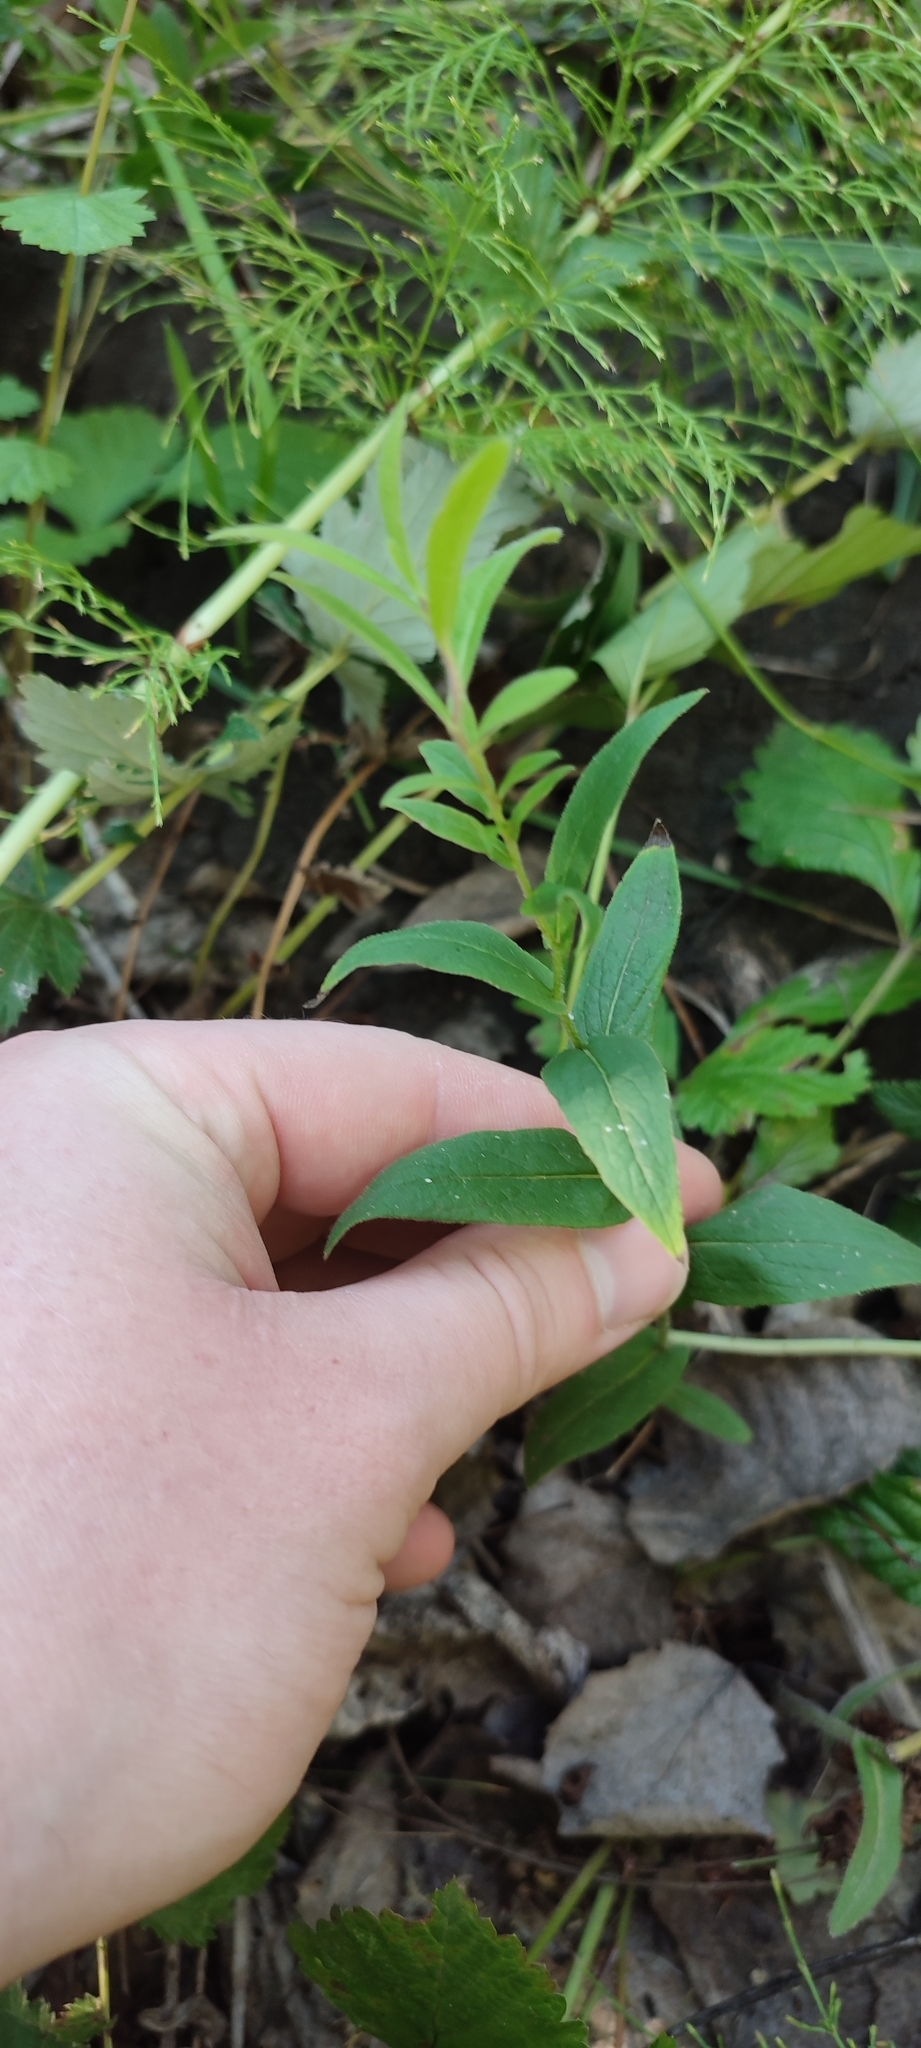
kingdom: Plantae
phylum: Tracheophyta
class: Magnoliopsida
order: Asterales
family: Asteraceae
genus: Pentanema
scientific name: Pentanema salicinum
